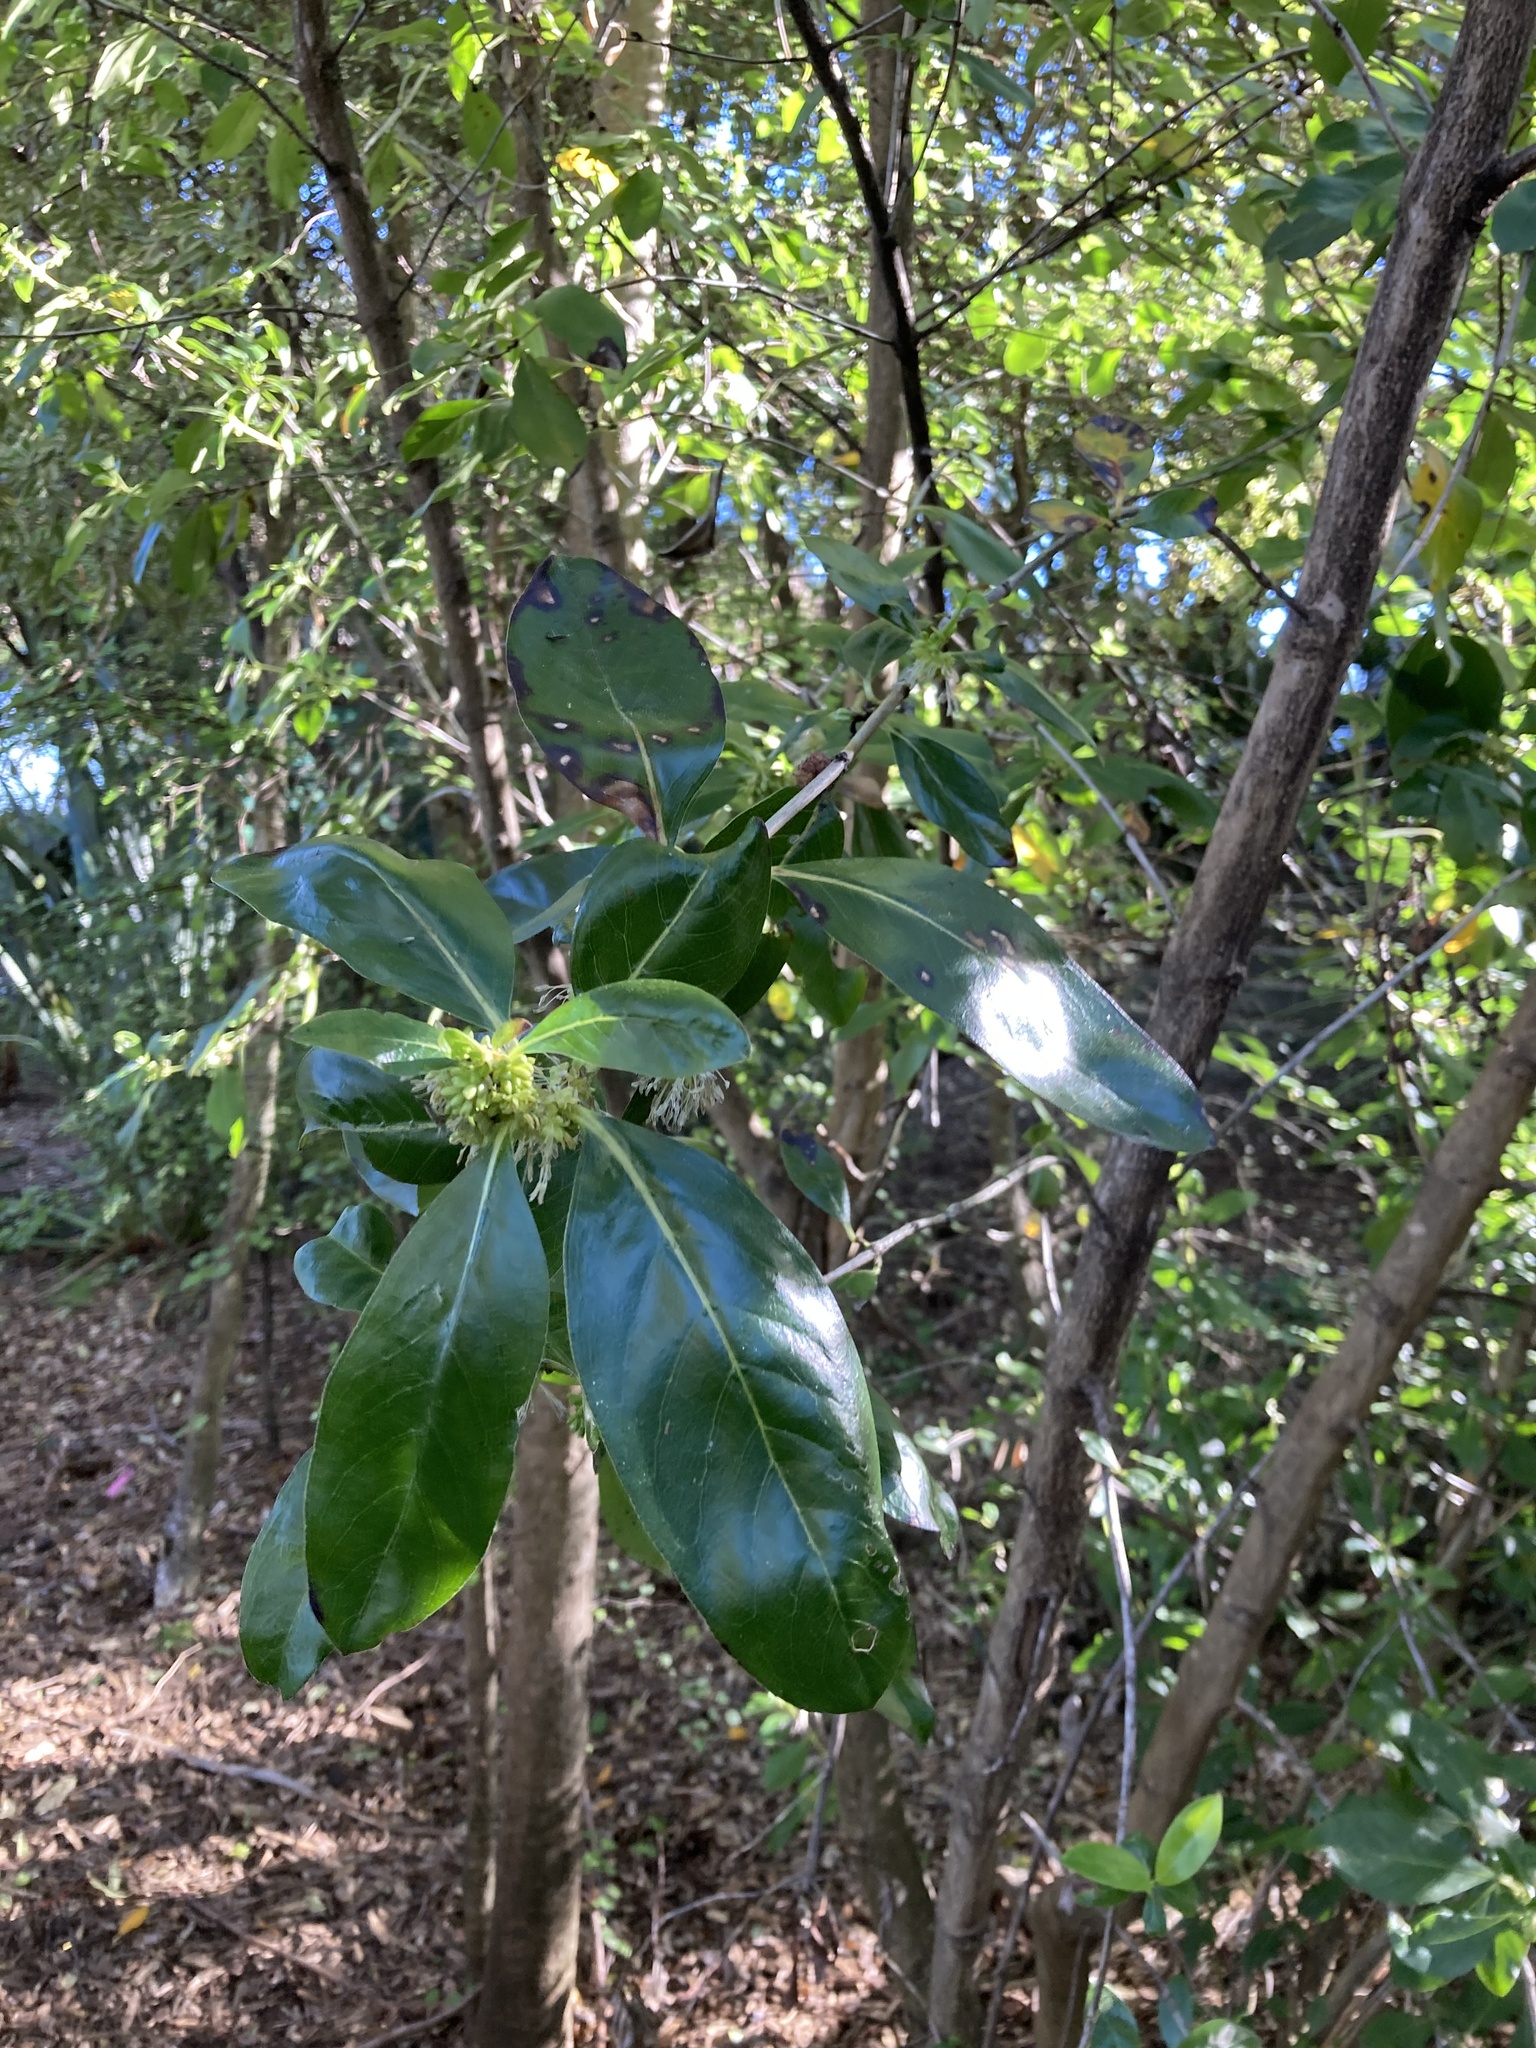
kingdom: Plantae
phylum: Tracheophyta
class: Magnoliopsida
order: Gentianales
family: Rubiaceae
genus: Coprosma
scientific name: Coprosma robusta
